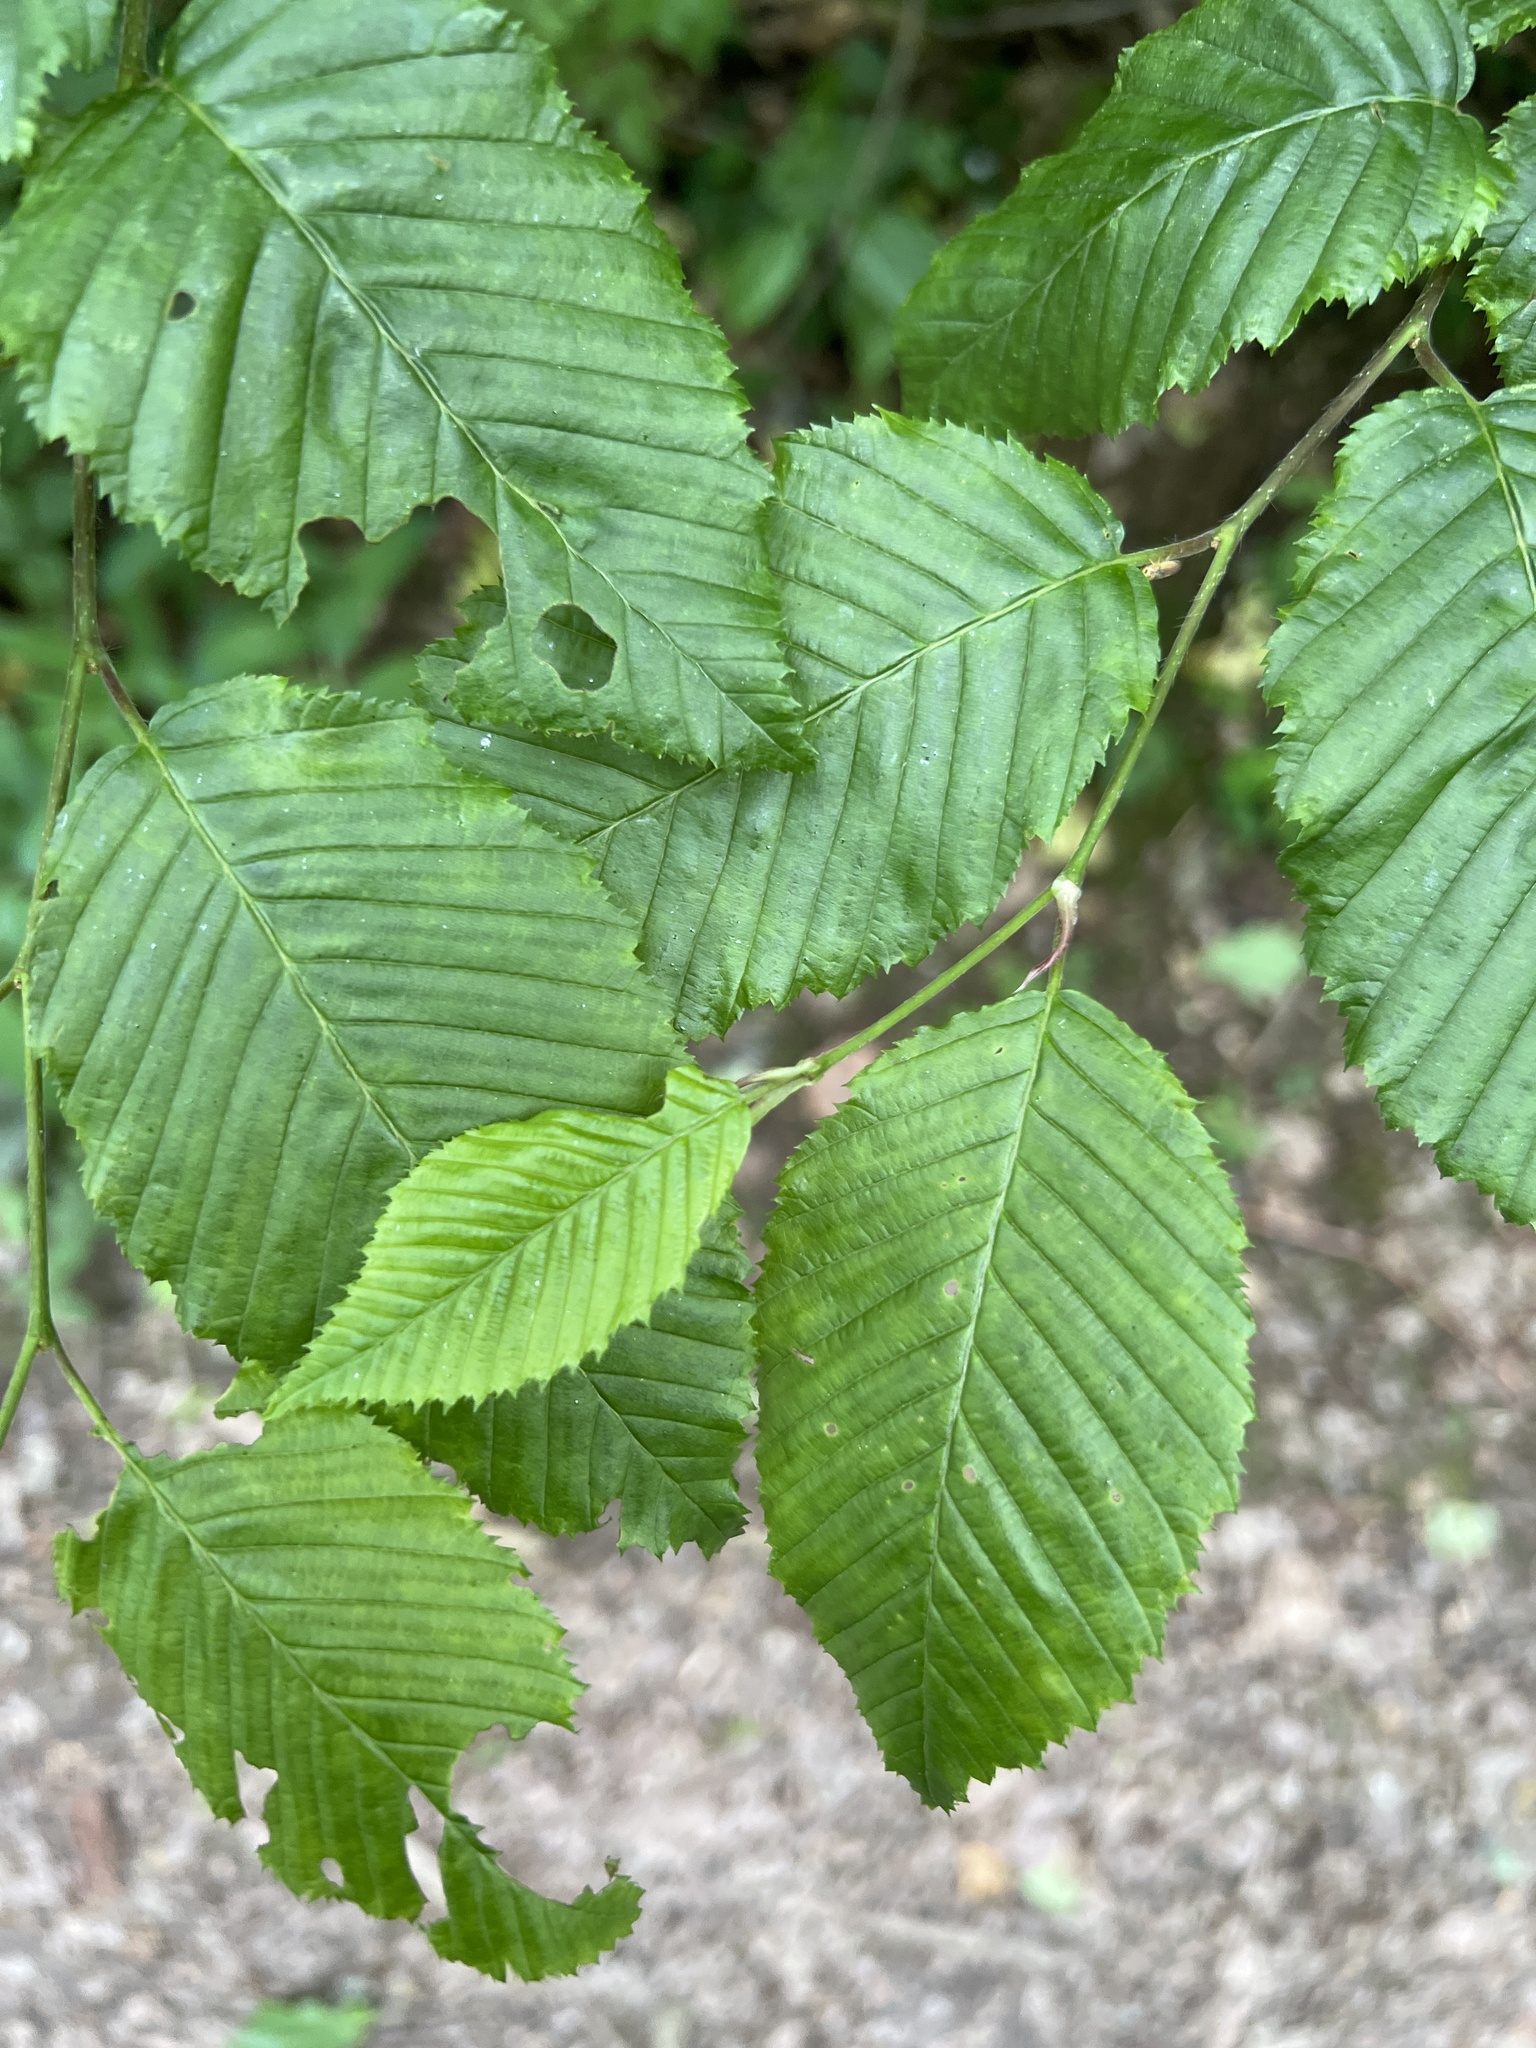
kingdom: Plantae
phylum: Tracheophyta
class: Magnoliopsida
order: Fagales
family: Betulaceae
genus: Carpinus
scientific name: Carpinus betulus
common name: Hornbeam
